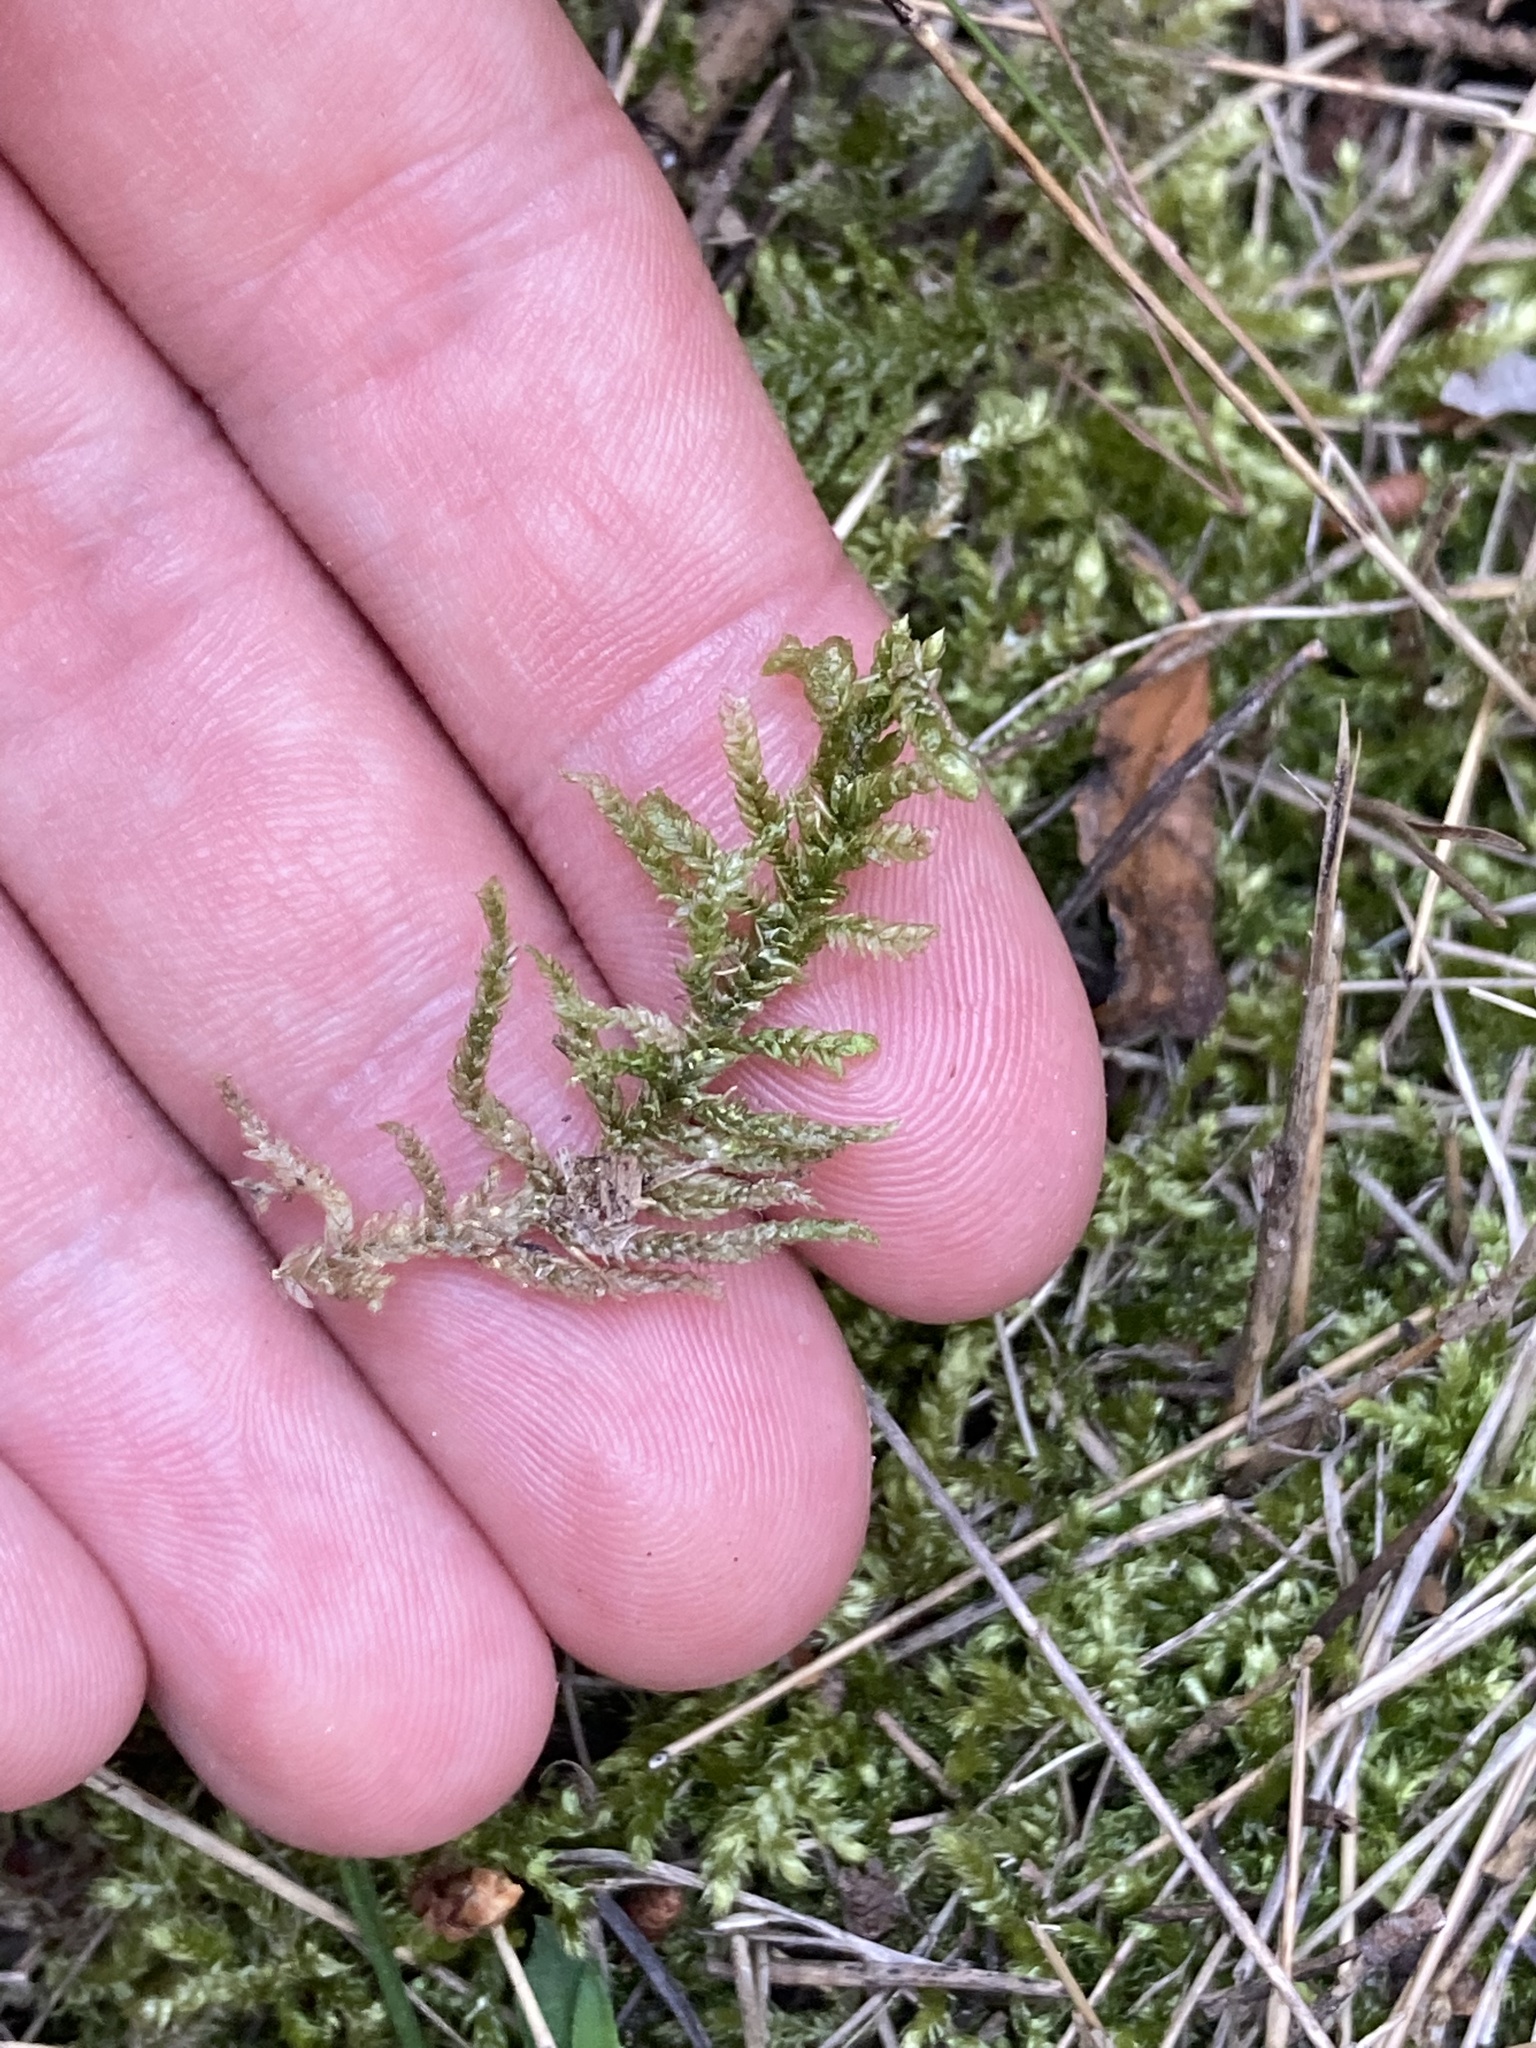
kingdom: Plantae
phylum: Bryophyta
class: Bryopsida
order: Hypnales
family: Brachytheciaceae
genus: Brachythecium
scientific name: Brachythecium rutabulum
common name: Rough-stalked feather-moss
